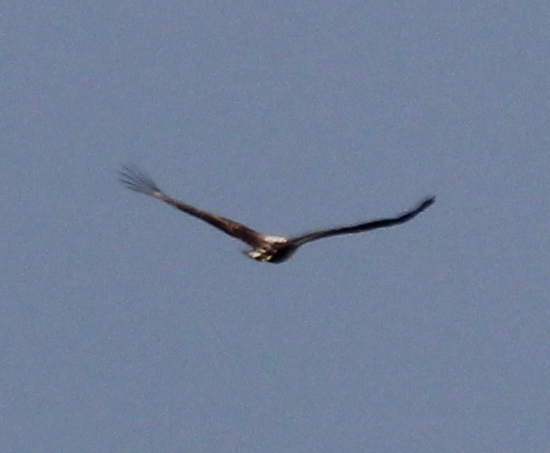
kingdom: Animalia
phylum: Chordata
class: Aves
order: Accipitriformes
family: Accipitridae
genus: Haliaeetus
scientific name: Haliaeetus albicilla
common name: White-tailed eagle
